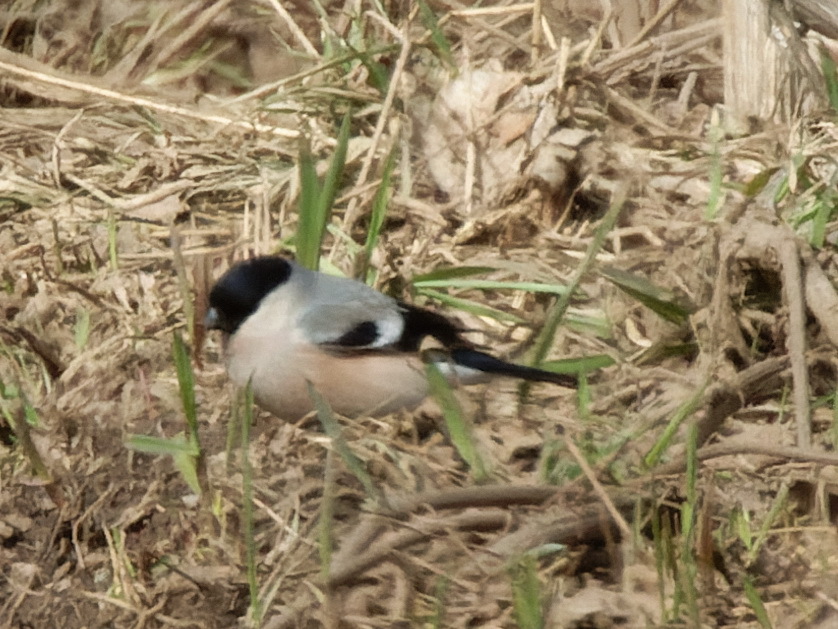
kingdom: Animalia
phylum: Chordata
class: Aves
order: Passeriformes
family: Fringillidae
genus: Pyrrhula
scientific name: Pyrrhula pyrrhula
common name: Eurasian bullfinch
